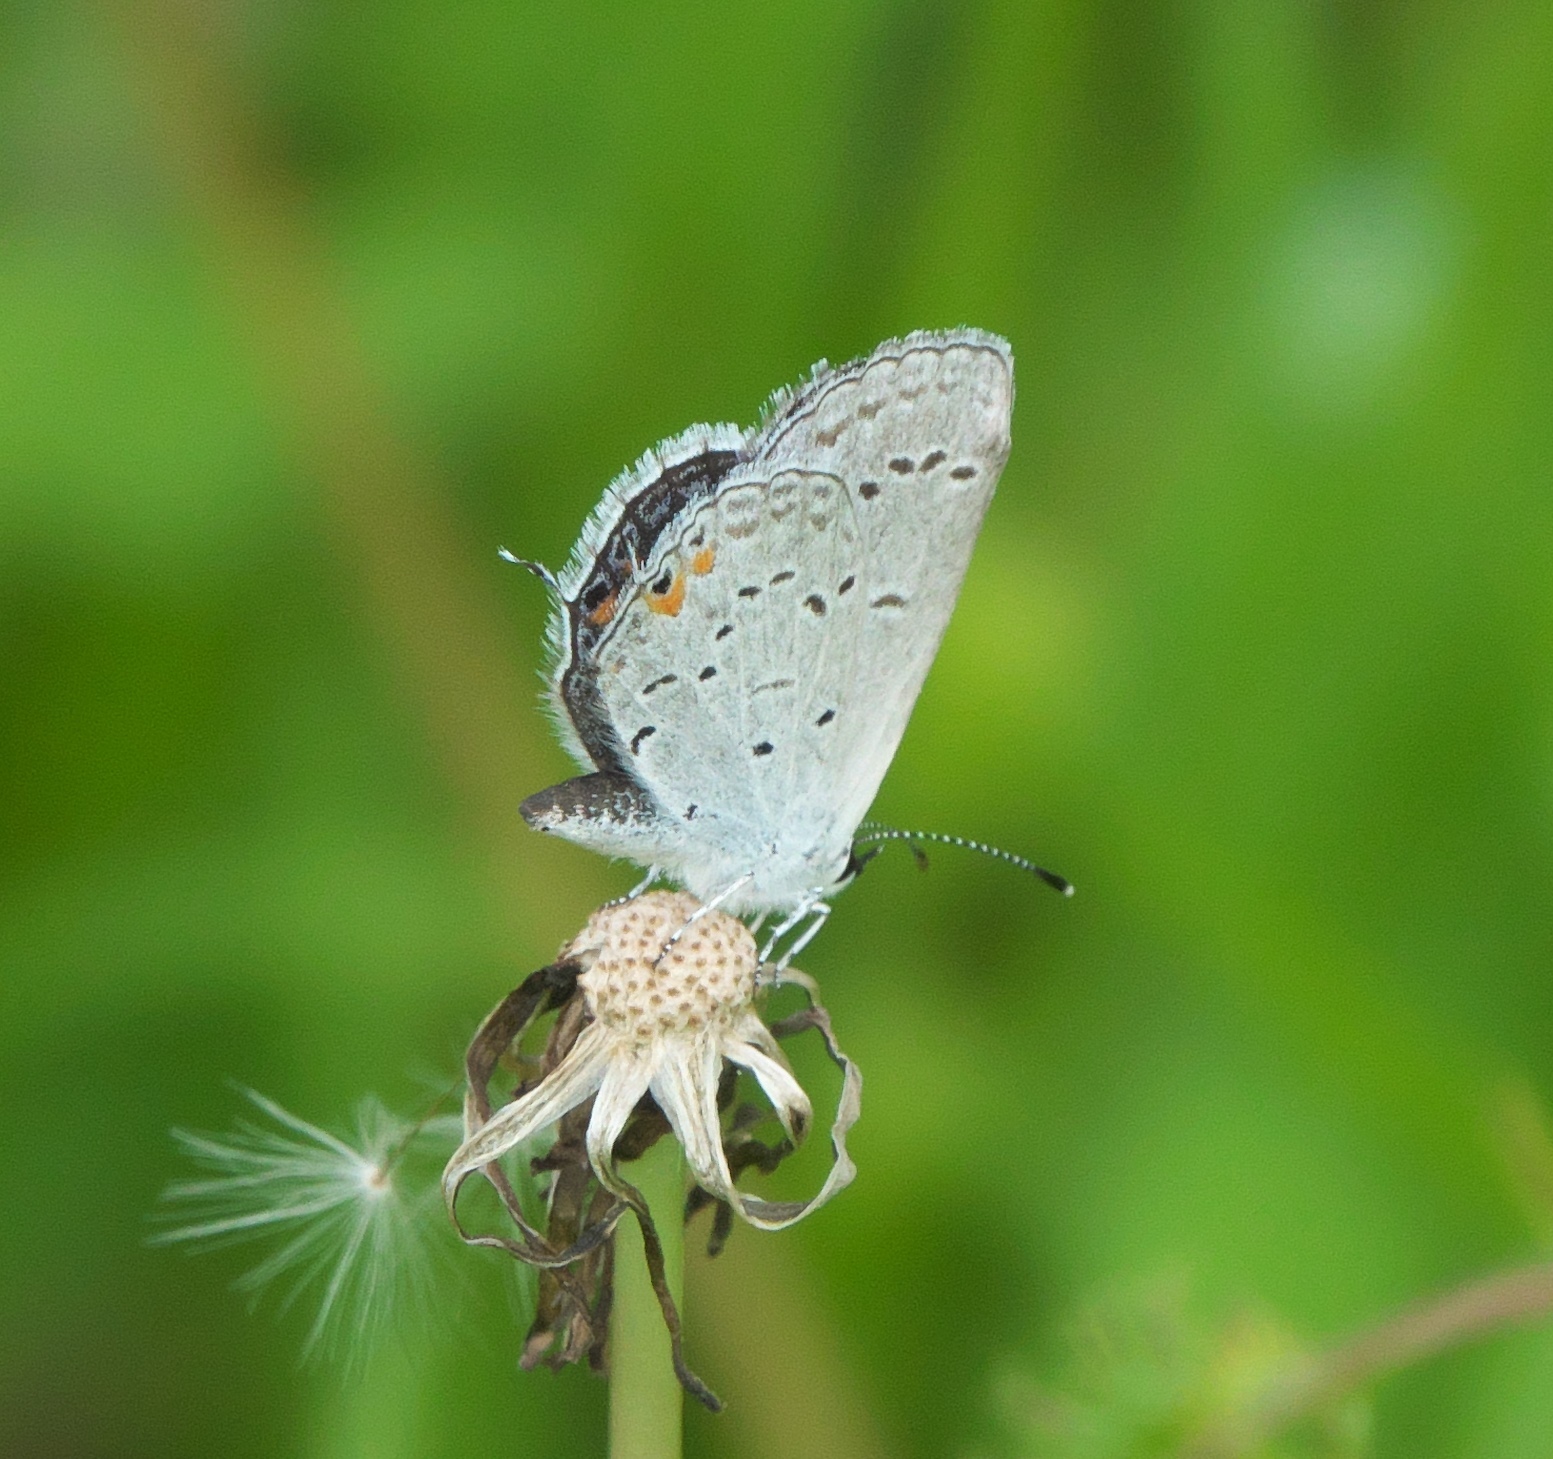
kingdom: Animalia
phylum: Arthropoda
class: Insecta
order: Lepidoptera
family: Lycaenidae
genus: Elkalyce
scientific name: Elkalyce comyntas
